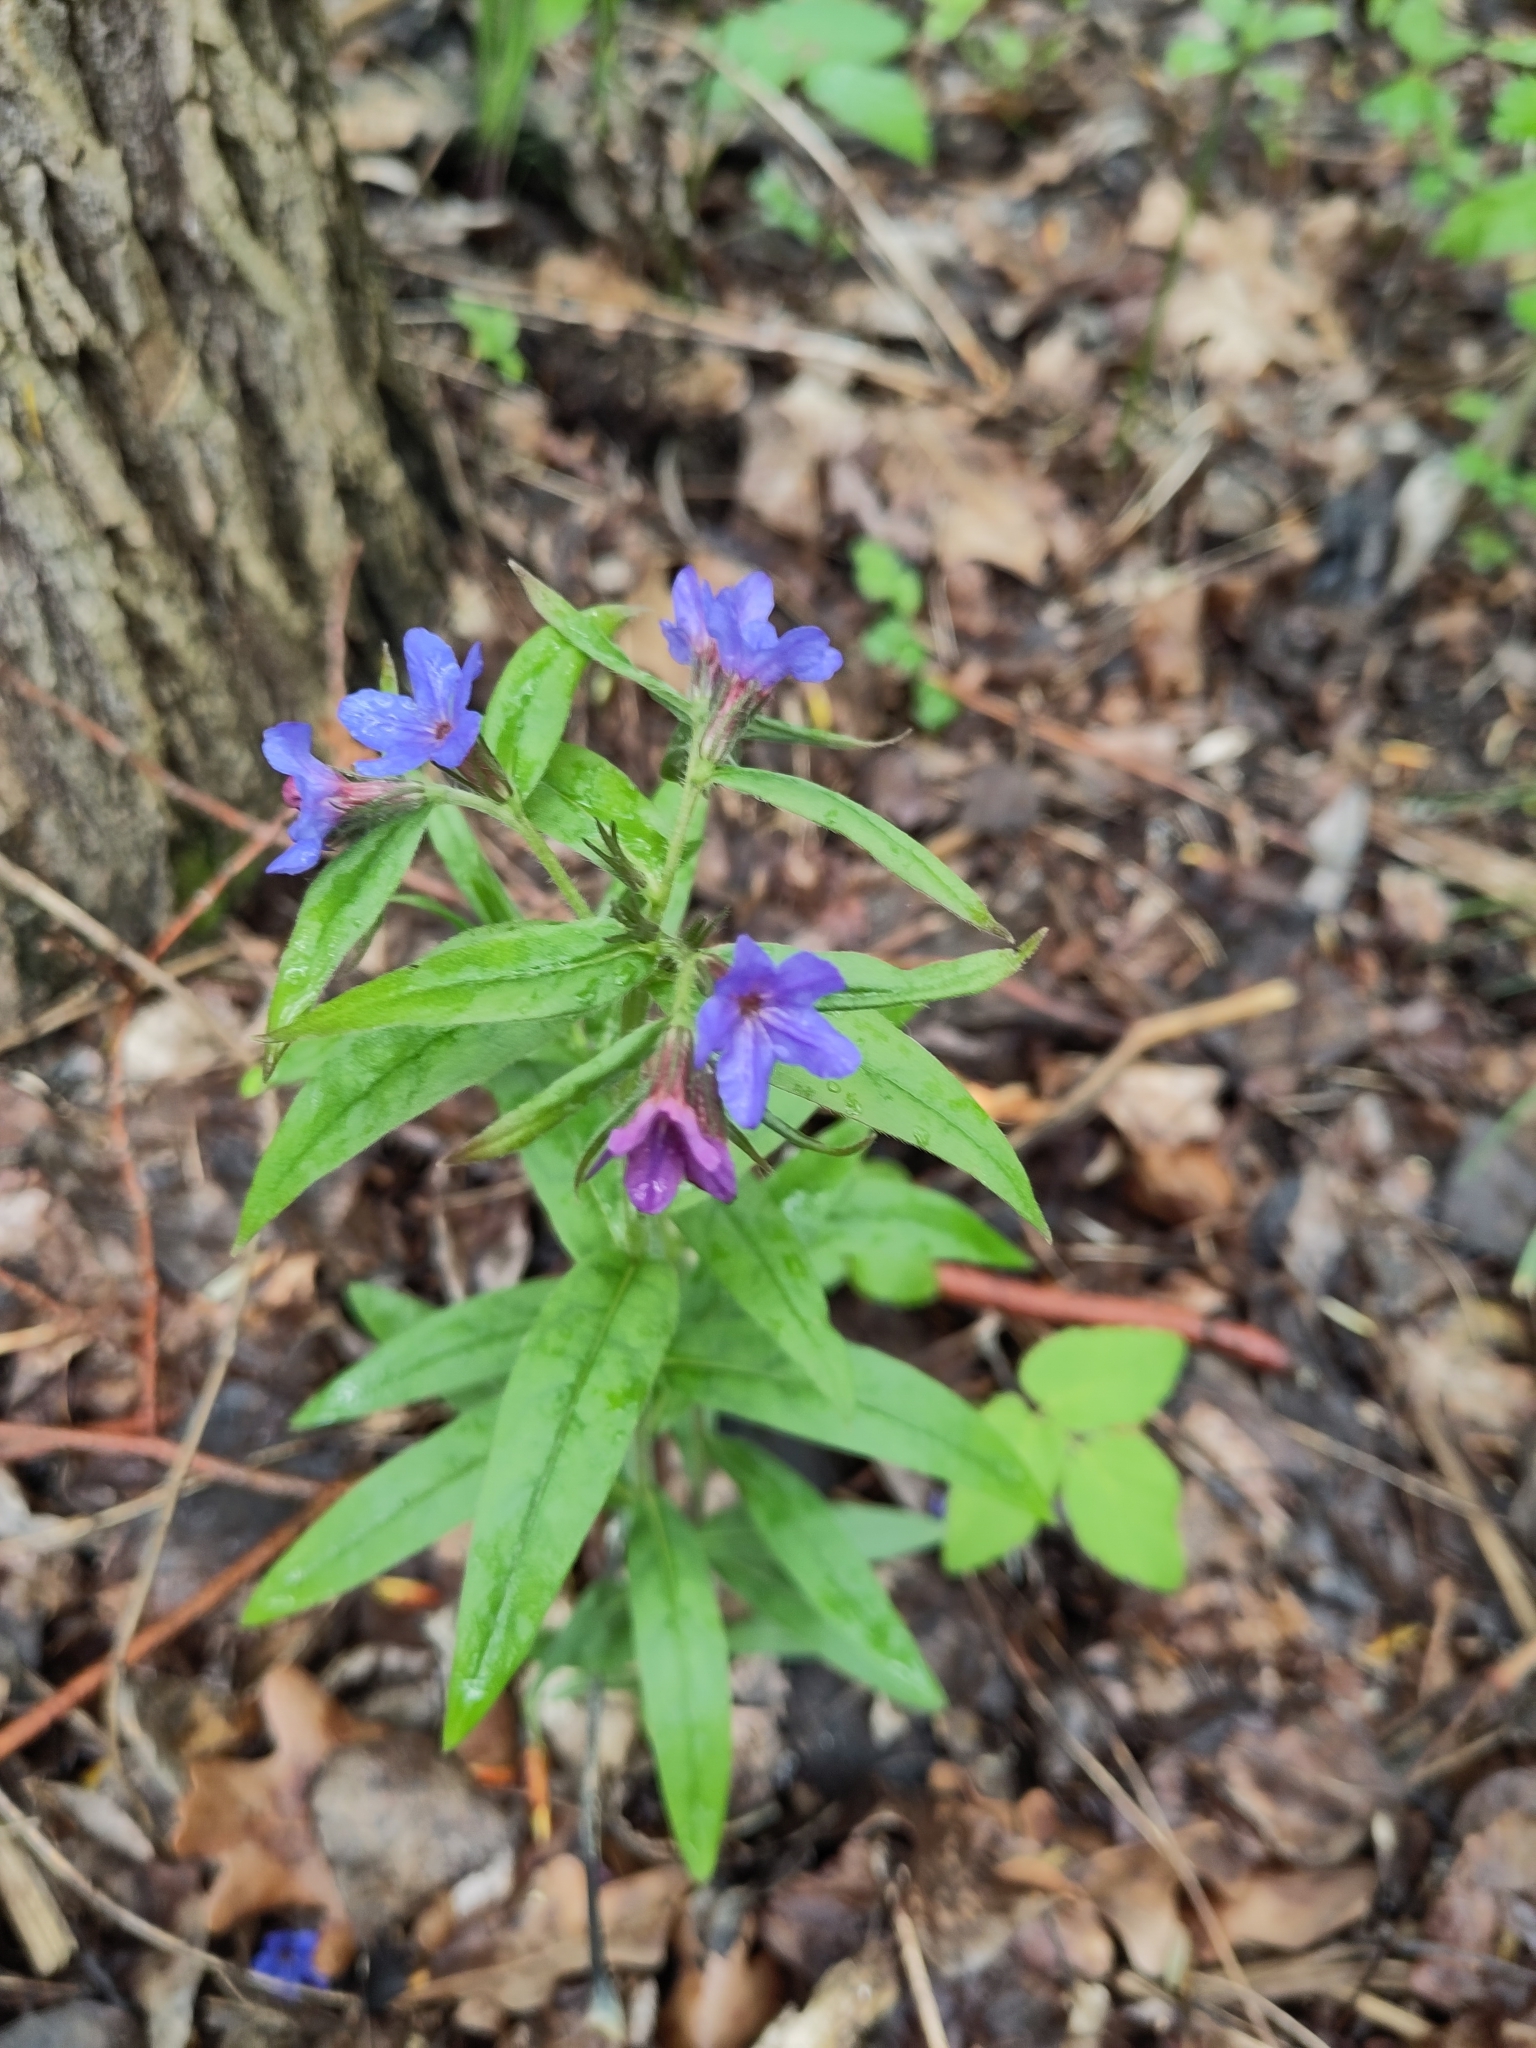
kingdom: Plantae
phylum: Tracheophyta
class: Magnoliopsida
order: Boraginales
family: Boraginaceae
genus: Aegonychon
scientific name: Aegonychon purpurocaeruleum
